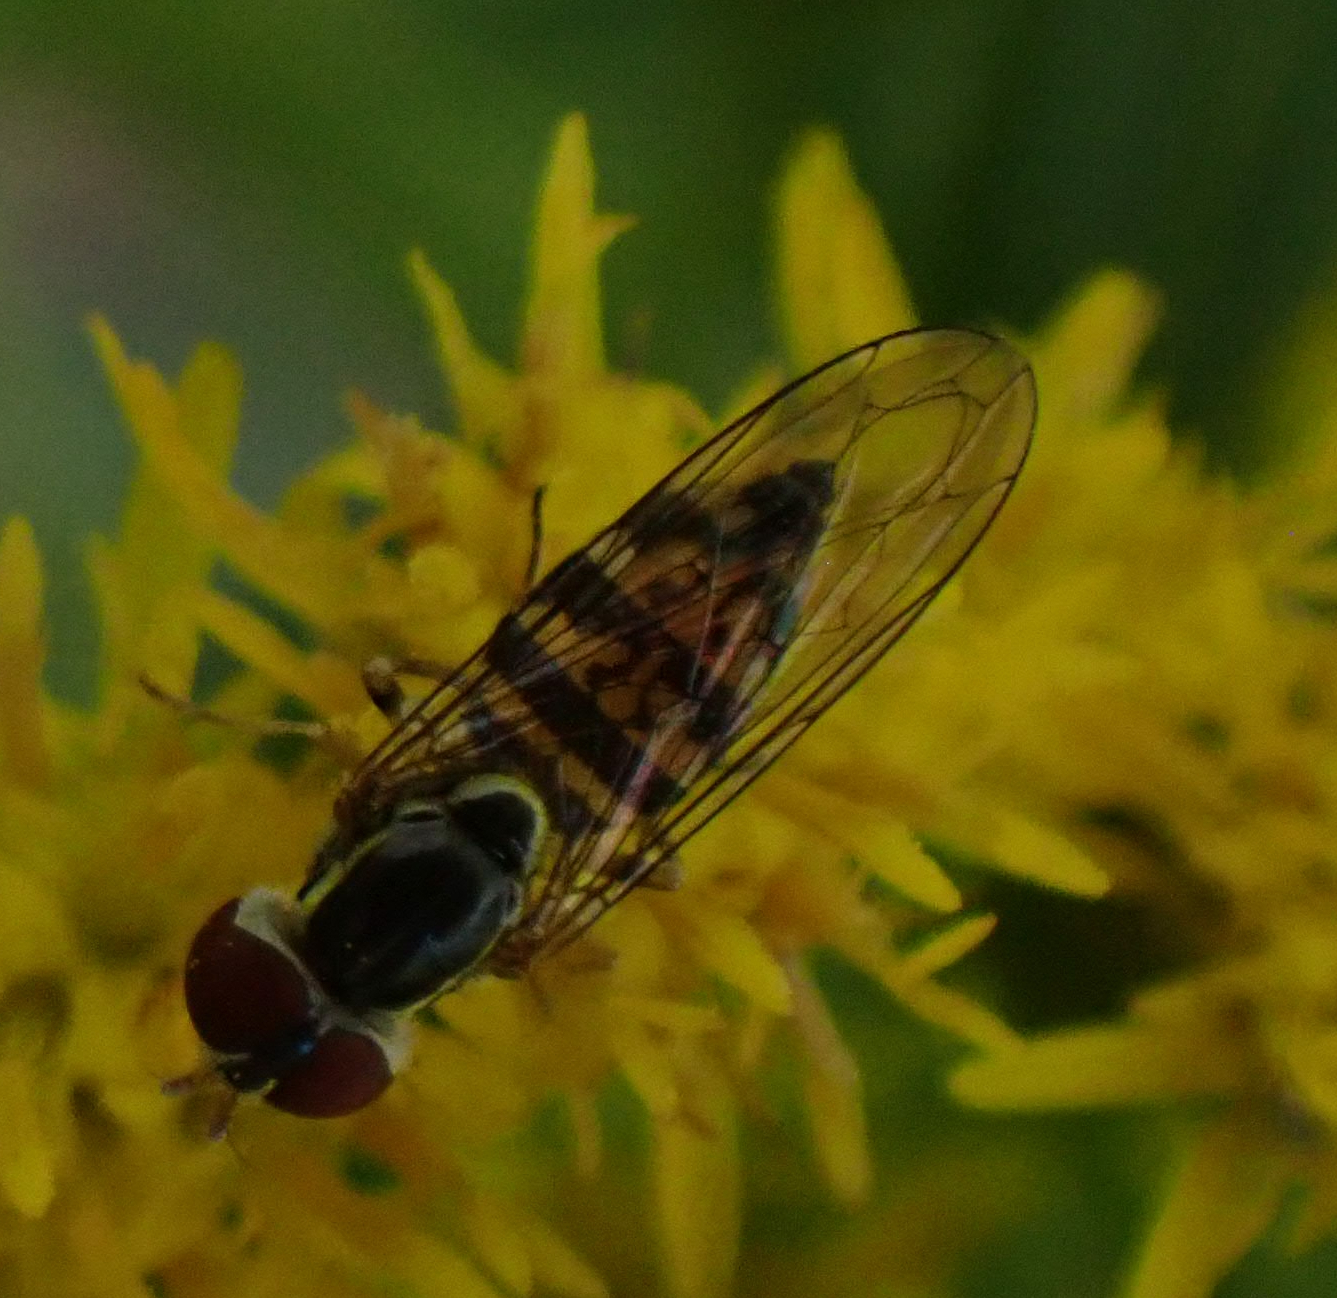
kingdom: Animalia
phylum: Arthropoda
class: Insecta
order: Diptera
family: Syrphidae
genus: Toxomerus
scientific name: Toxomerus geminatus
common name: Eastern calligrapher
